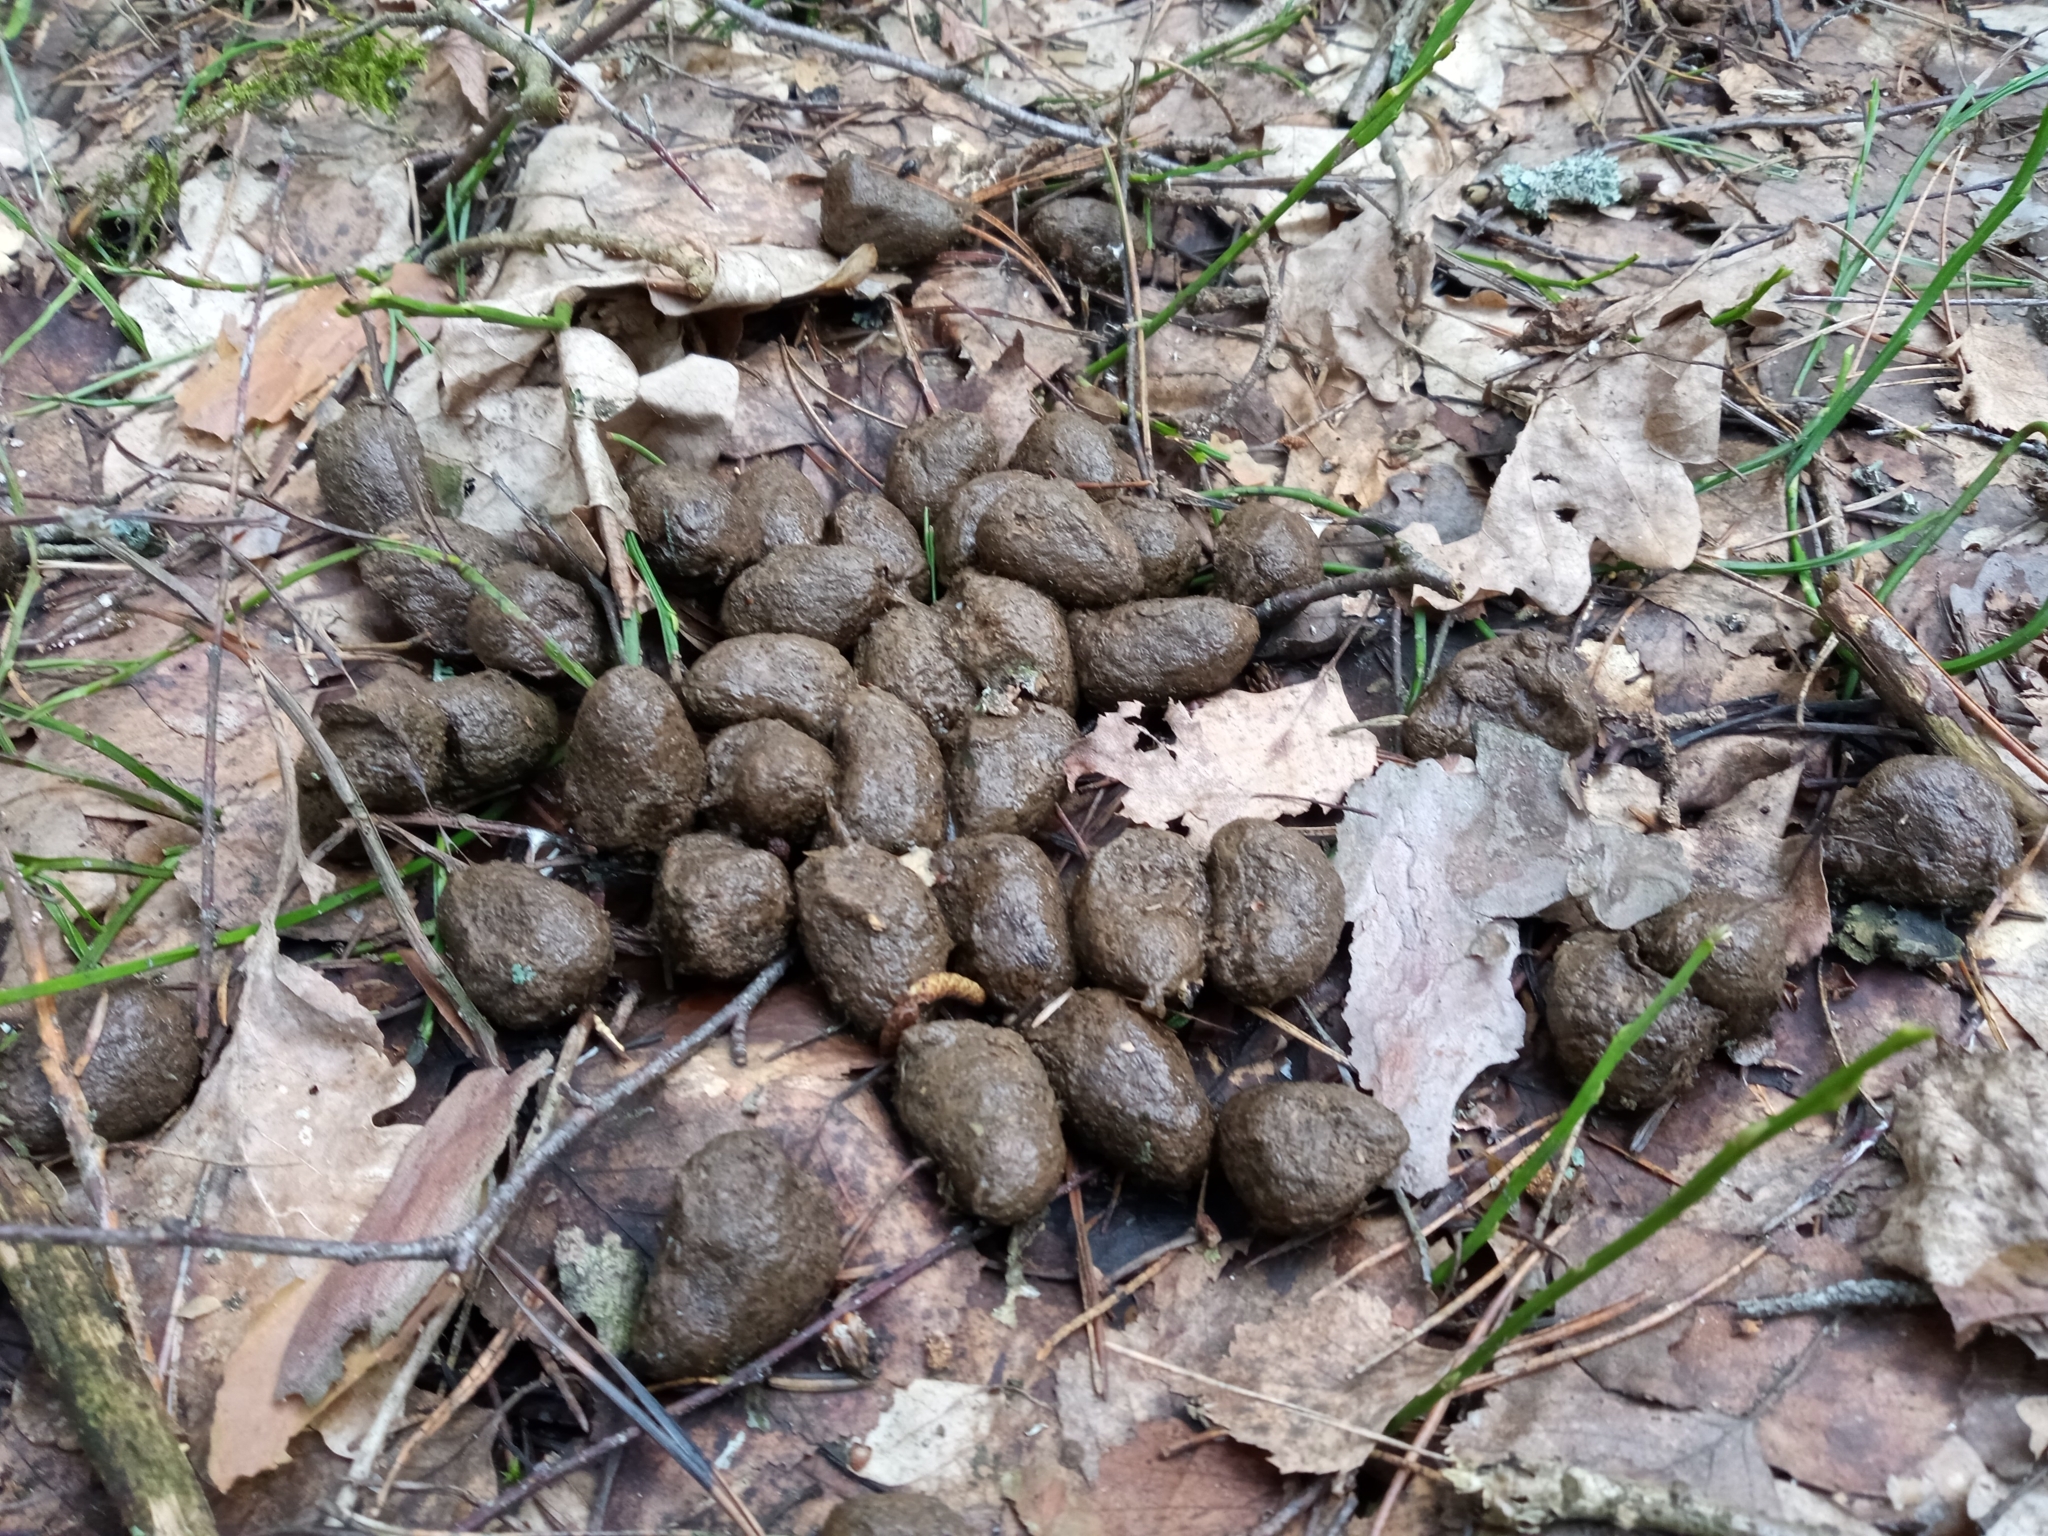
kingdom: Animalia
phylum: Chordata
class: Mammalia
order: Artiodactyla
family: Cervidae
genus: Alces
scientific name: Alces alces
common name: Moose
